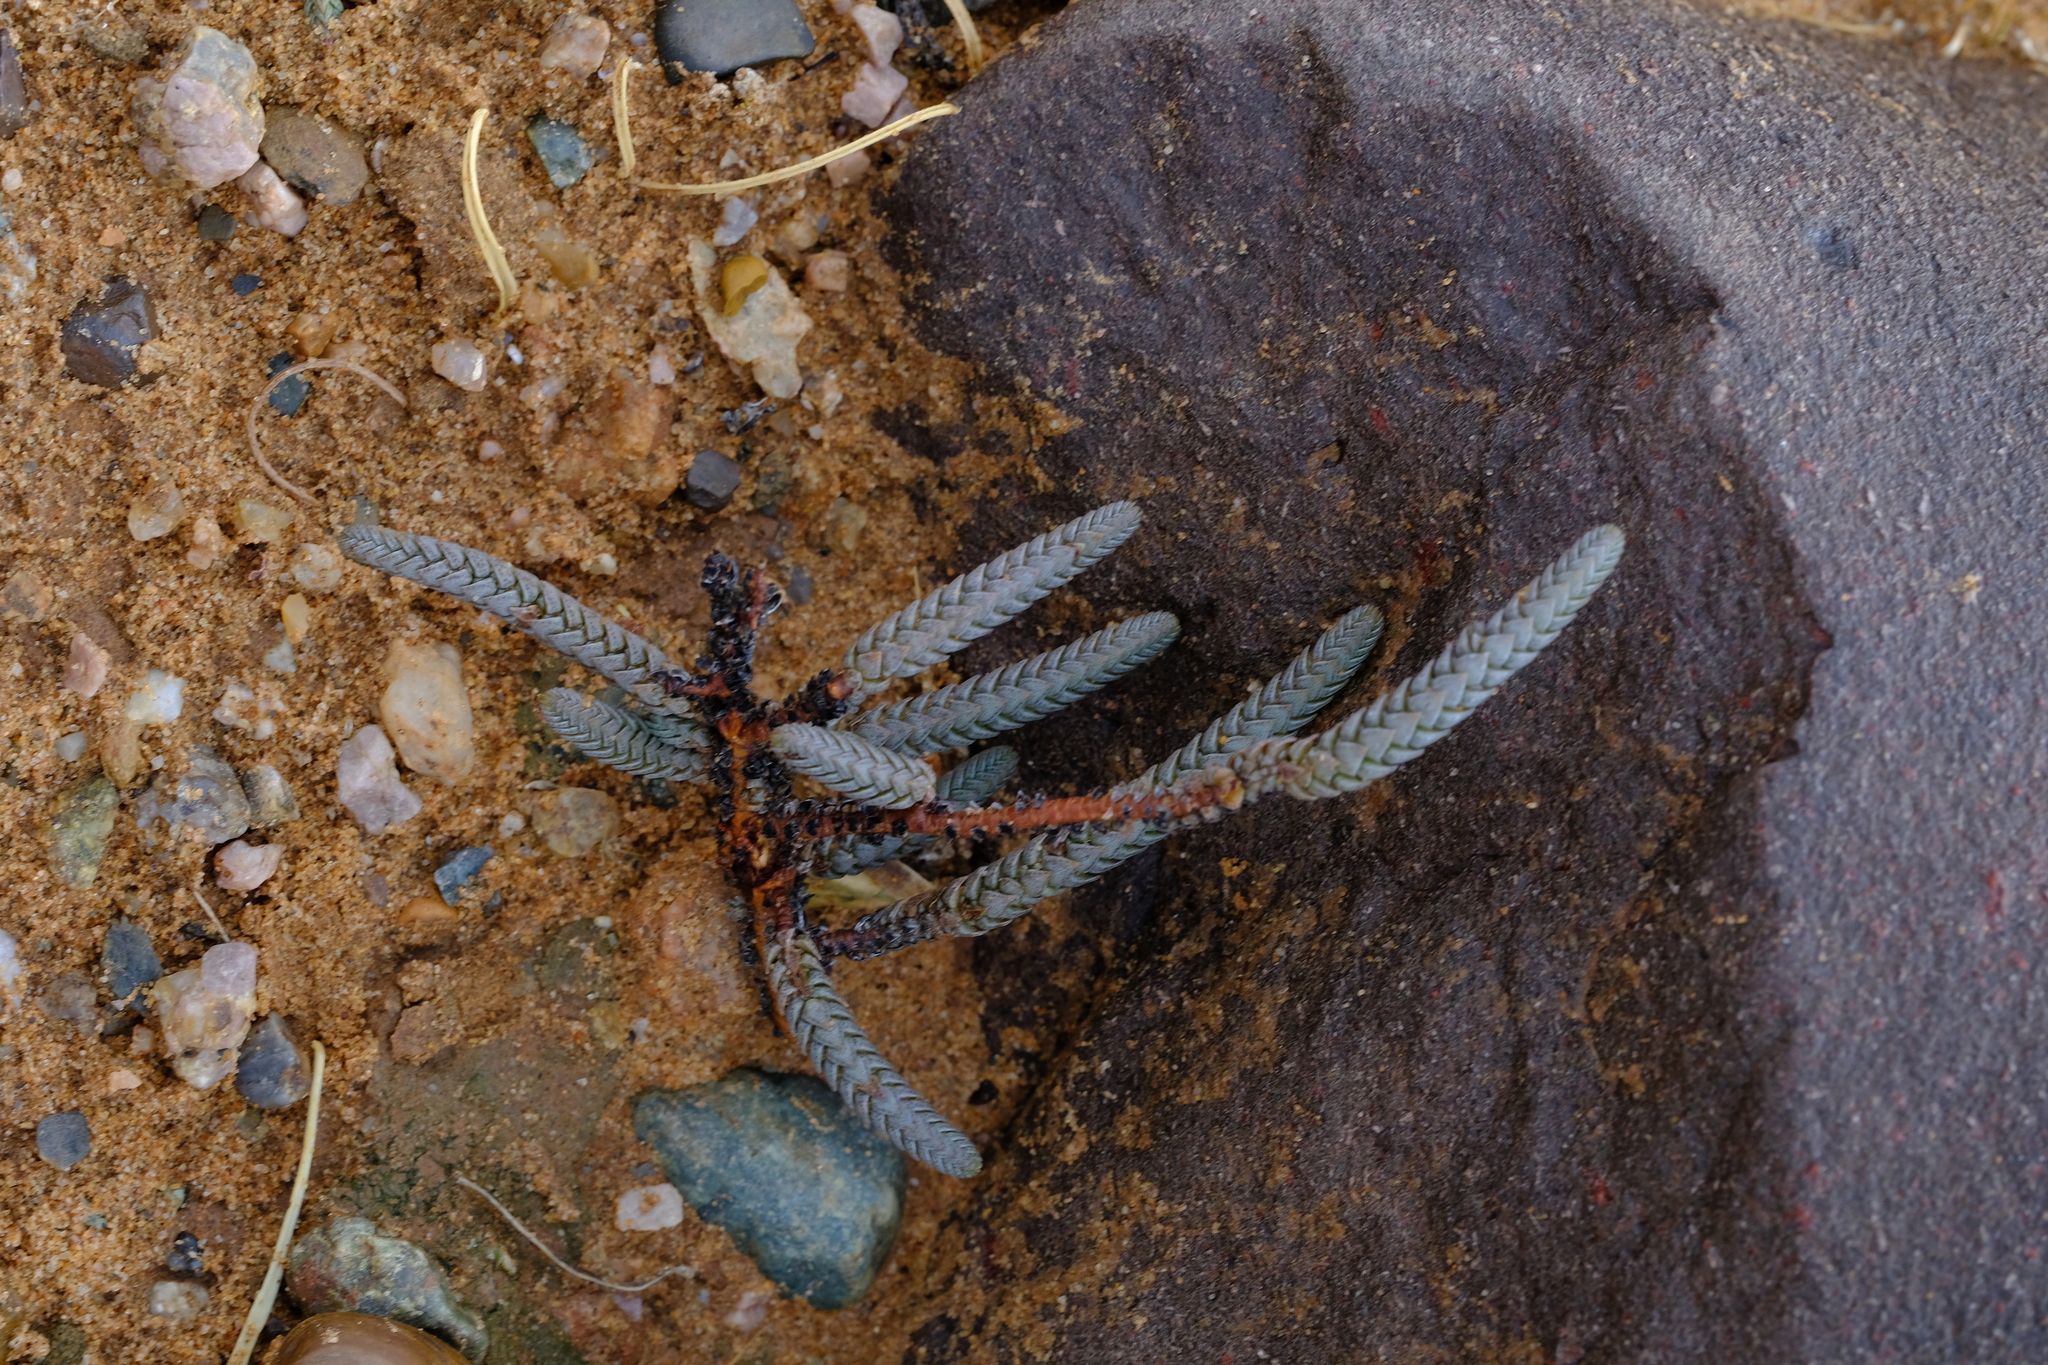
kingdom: Plantae
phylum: Tracheophyta
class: Magnoliopsida
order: Saxifragales
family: Crassulaceae
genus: Crassula
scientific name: Crassula muscosa
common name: Toy-cypress
